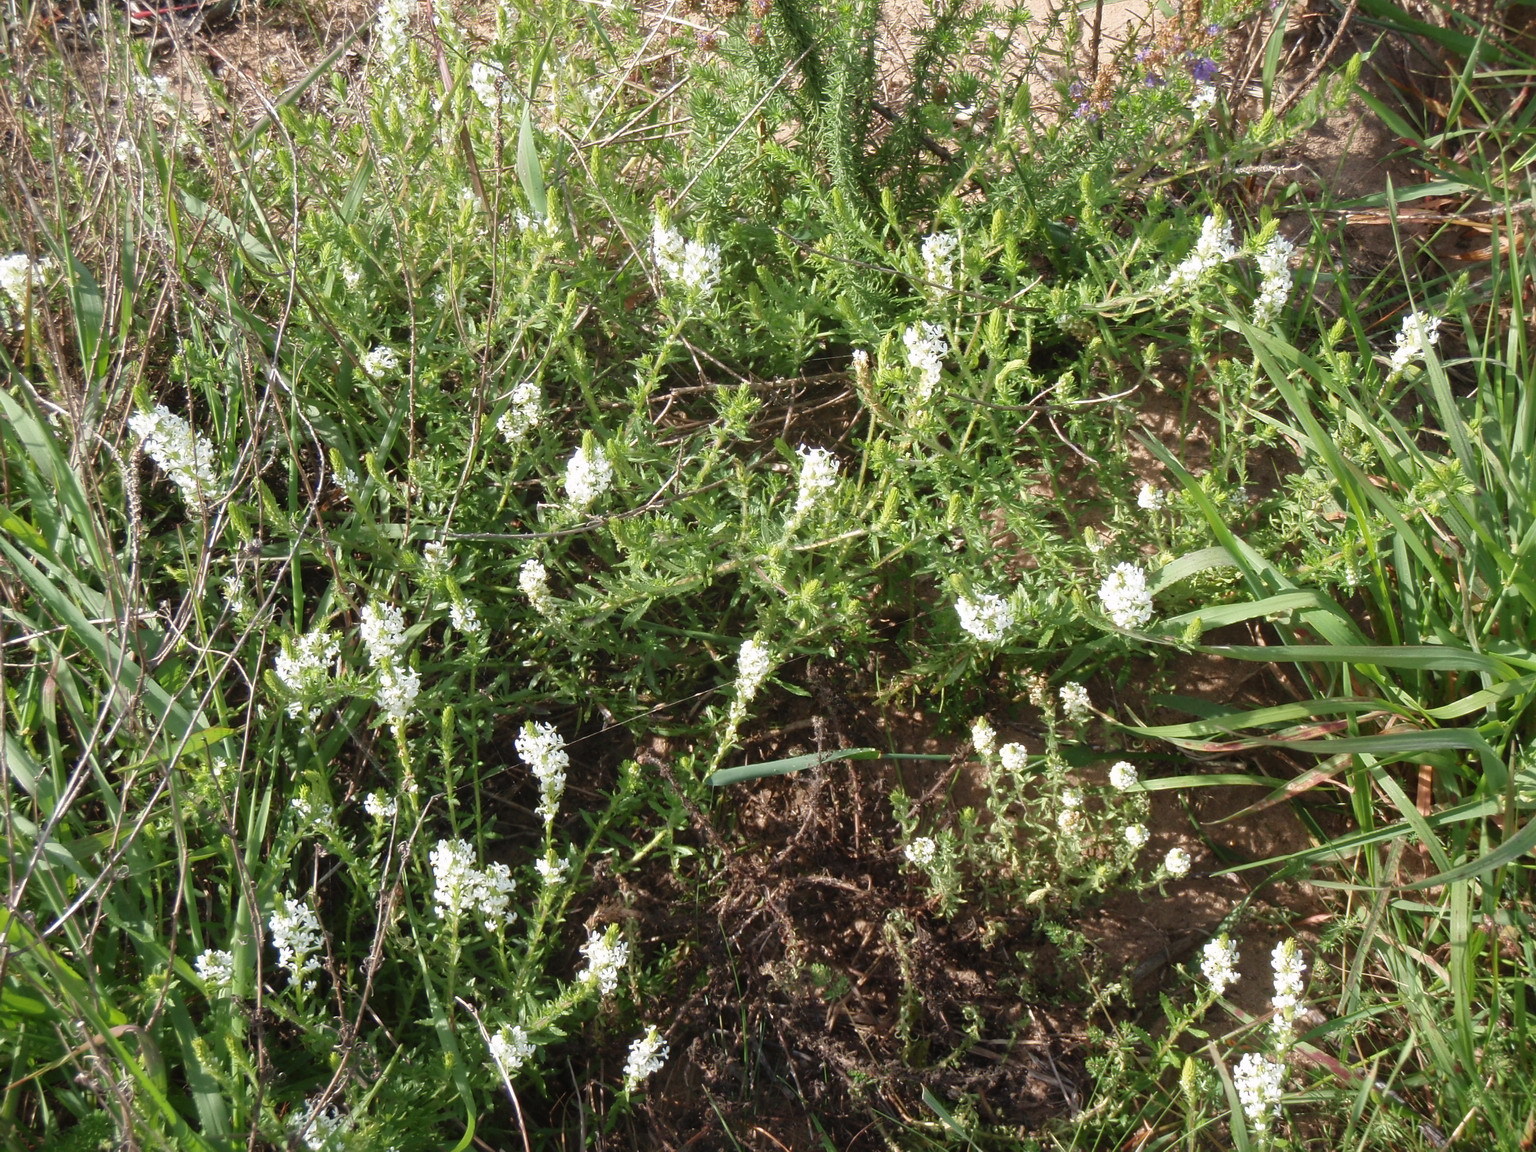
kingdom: Plantae
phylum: Tracheophyta
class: Magnoliopsida
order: Lamiales
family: Scrophulariaceae
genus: Dischisma
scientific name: Dischisma ciliatum
